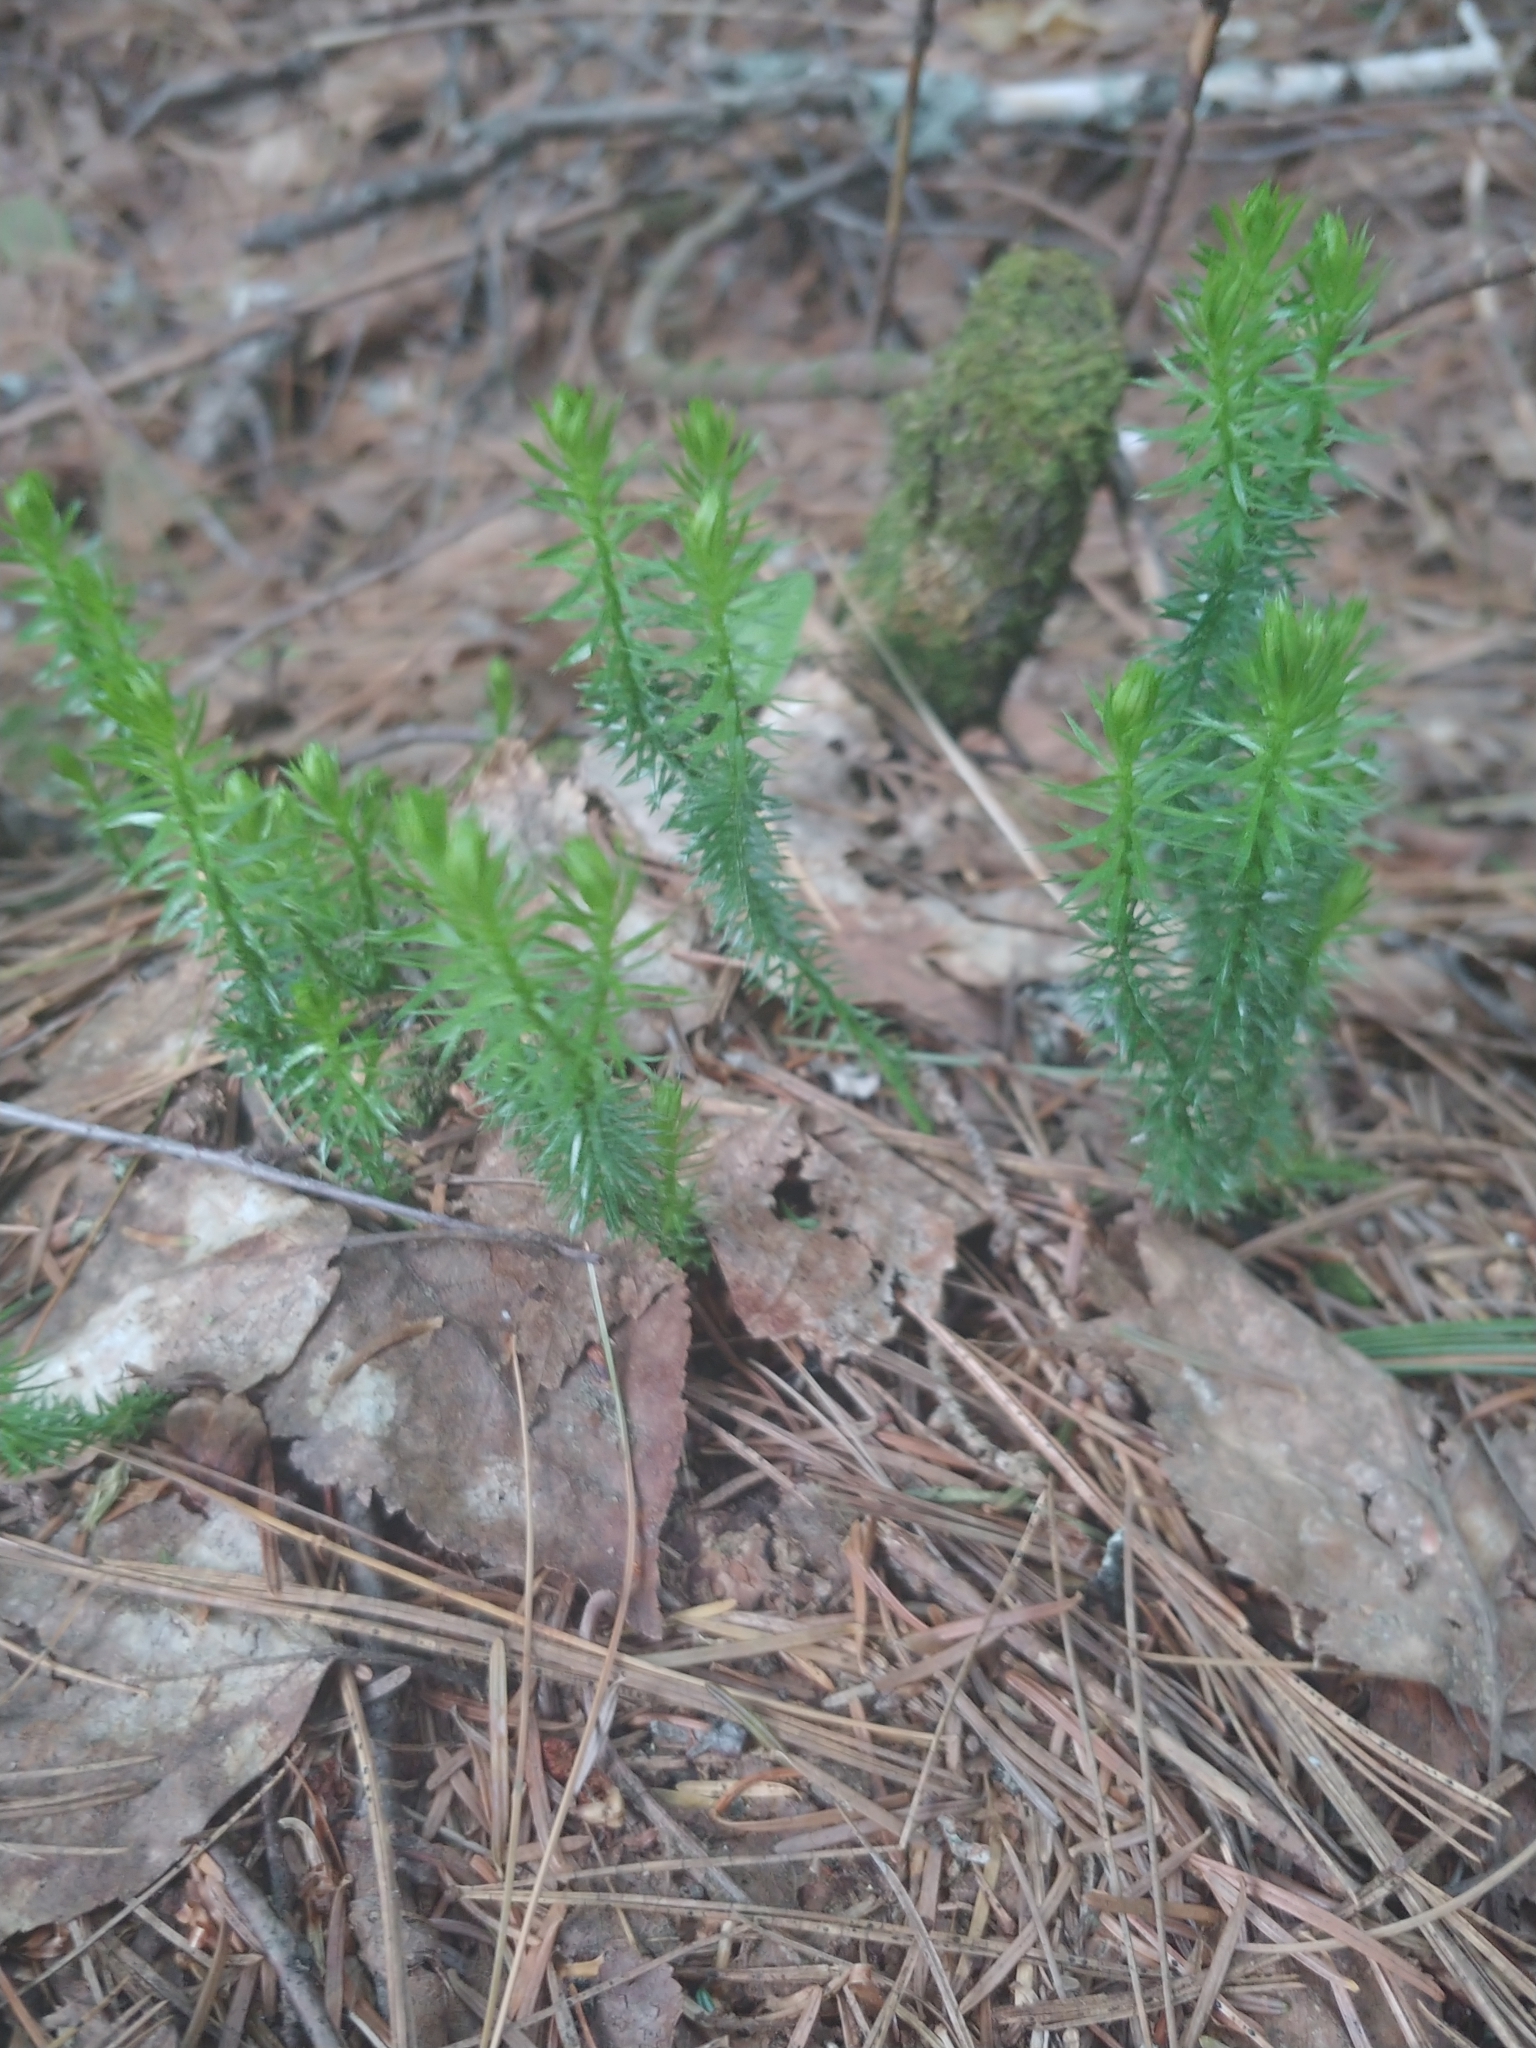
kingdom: Plantae
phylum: Tracheophyta
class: Lycopodiopsida
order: Lycopodiales
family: Lycopodiaceae
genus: Spinulum
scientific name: Spinulum annotinum
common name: Interrupted club-moss
